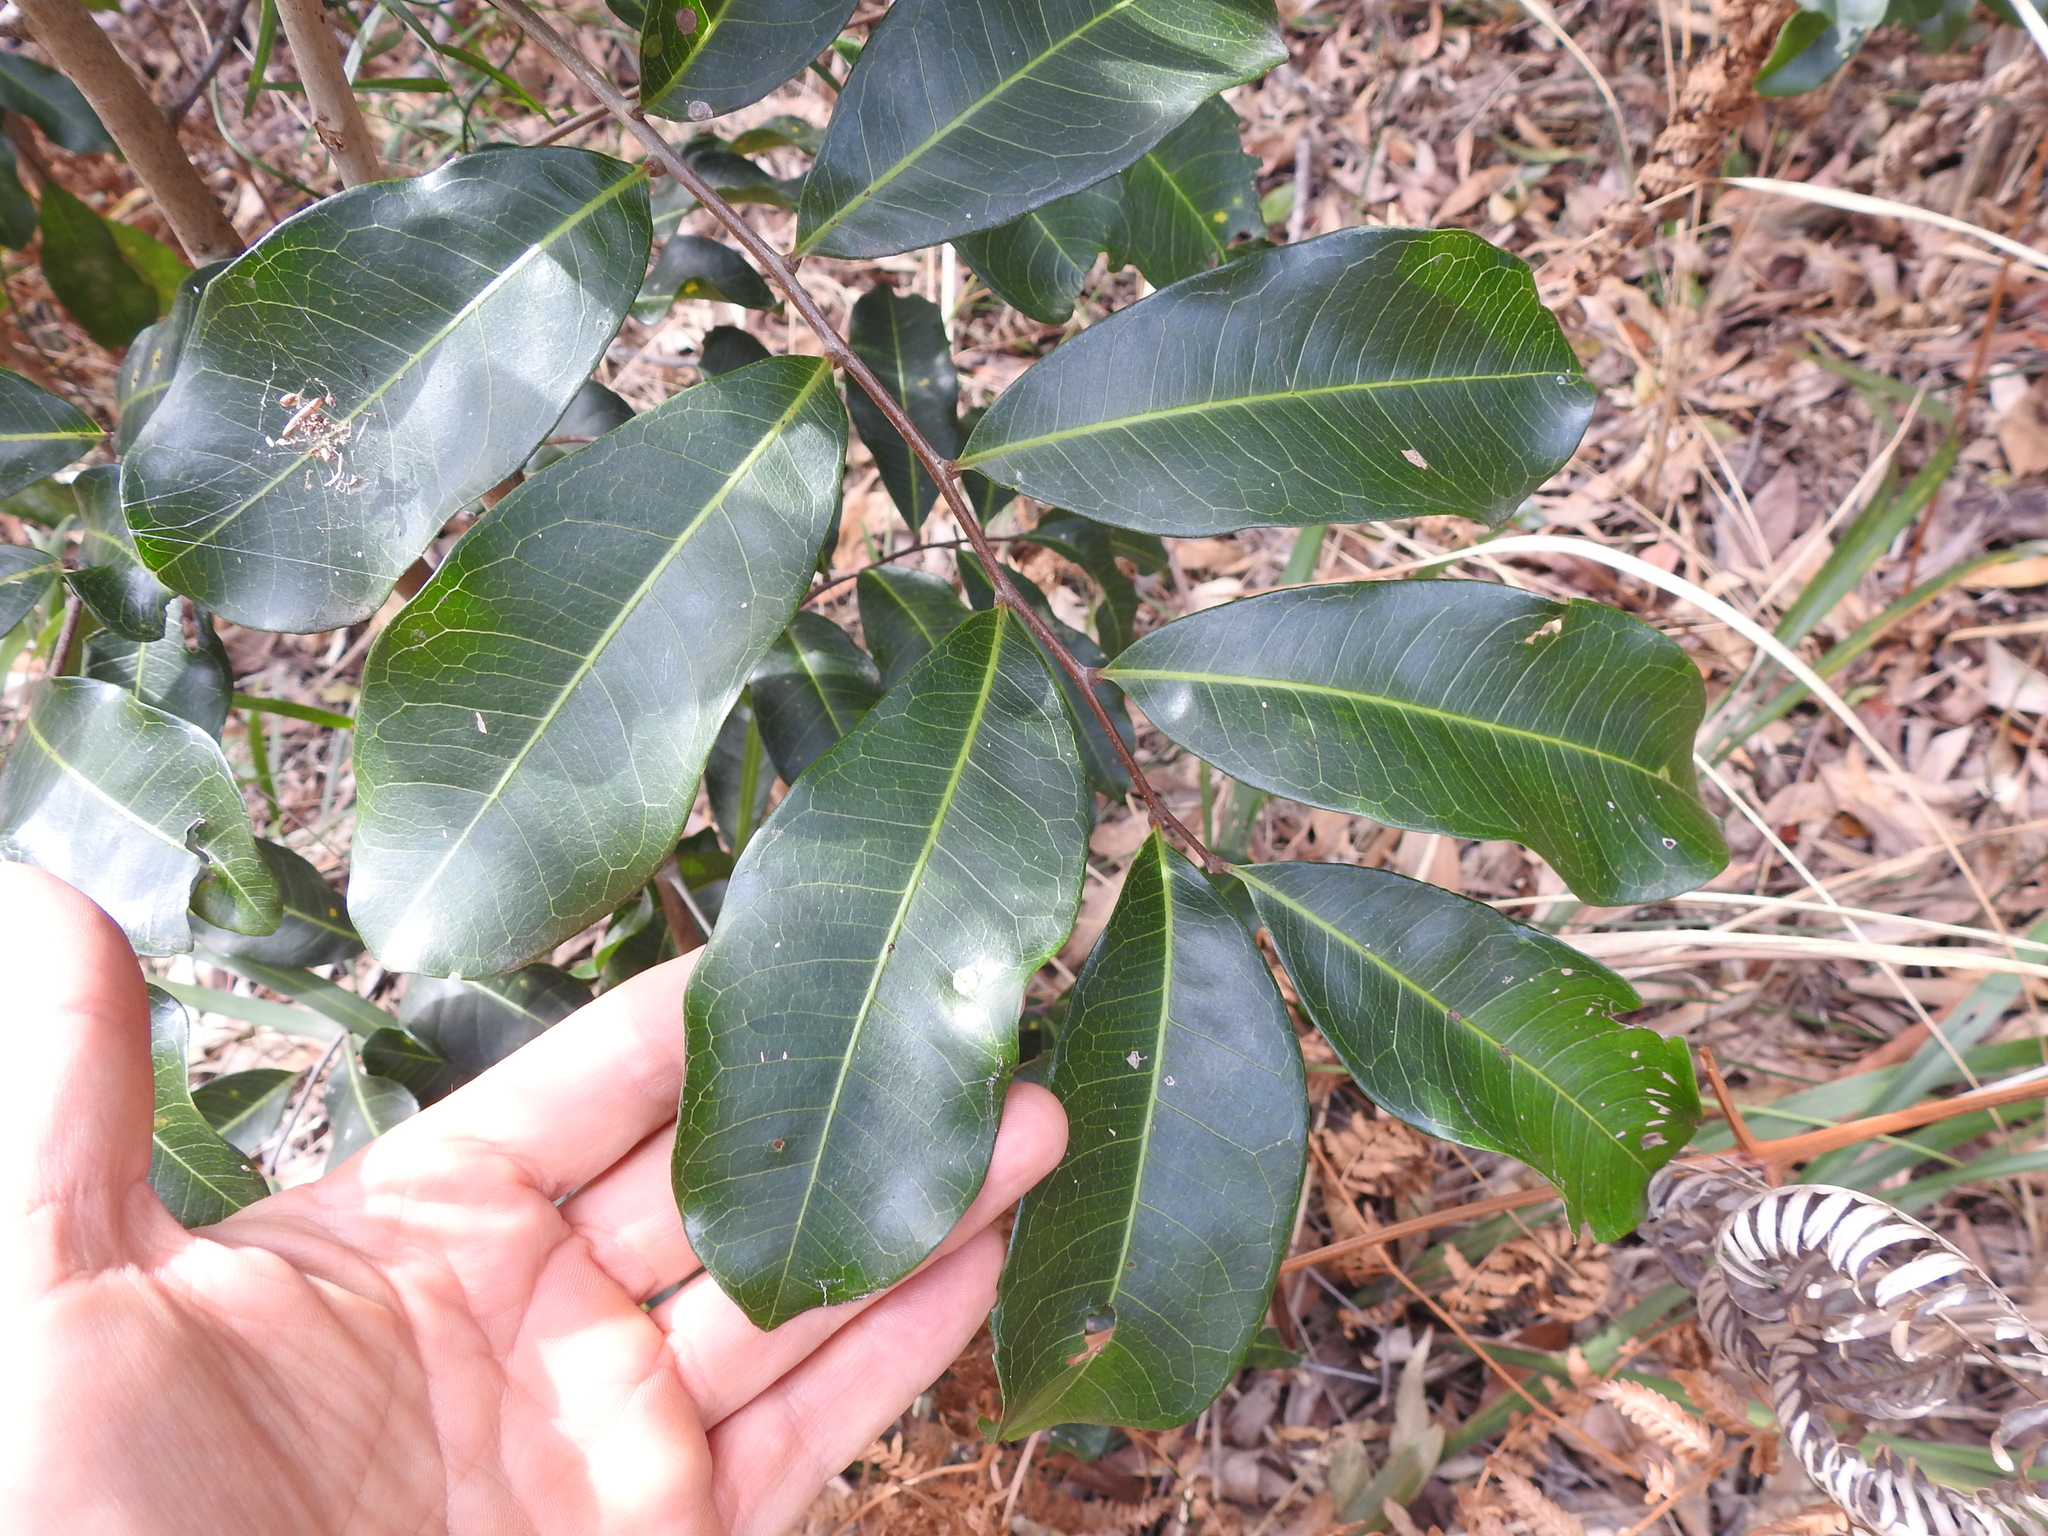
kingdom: Plantae
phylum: Tracheophyta
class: Magnoliopsida
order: Sapindales
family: Sapindaceae
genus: Cupaniopsis
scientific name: Cupaniopsis anacardioides
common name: Carrotwood
